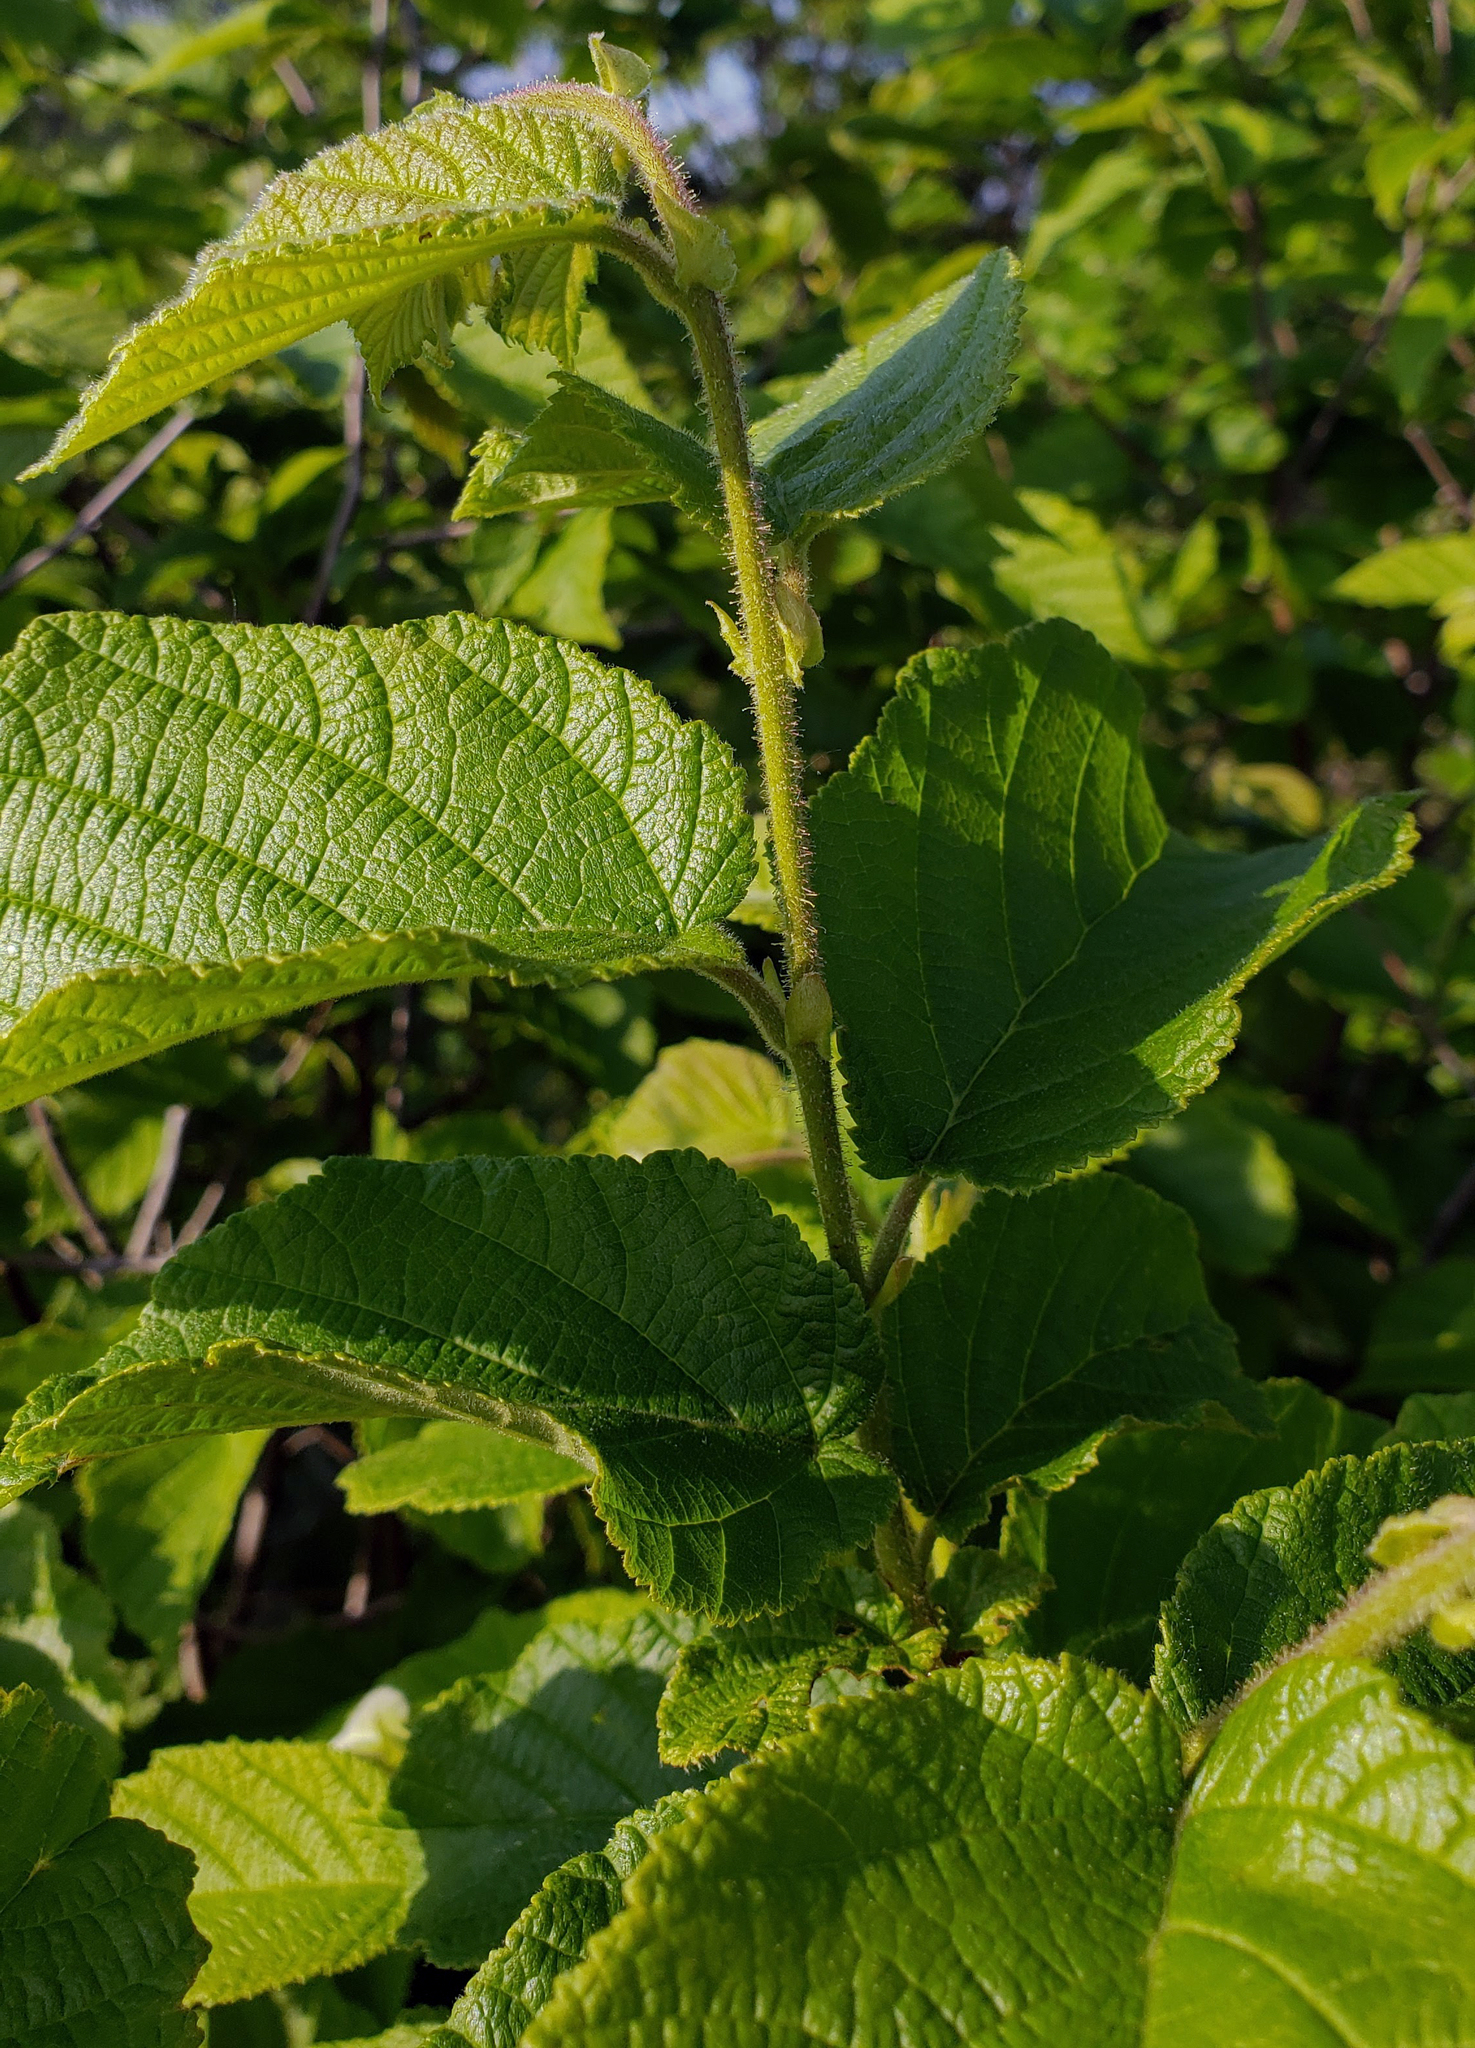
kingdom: Plantae
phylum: Tracheophyta
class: Magnoliopsida
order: Fagales
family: Betulaceae
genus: Corylus
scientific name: Corylus americana
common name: American hazel
